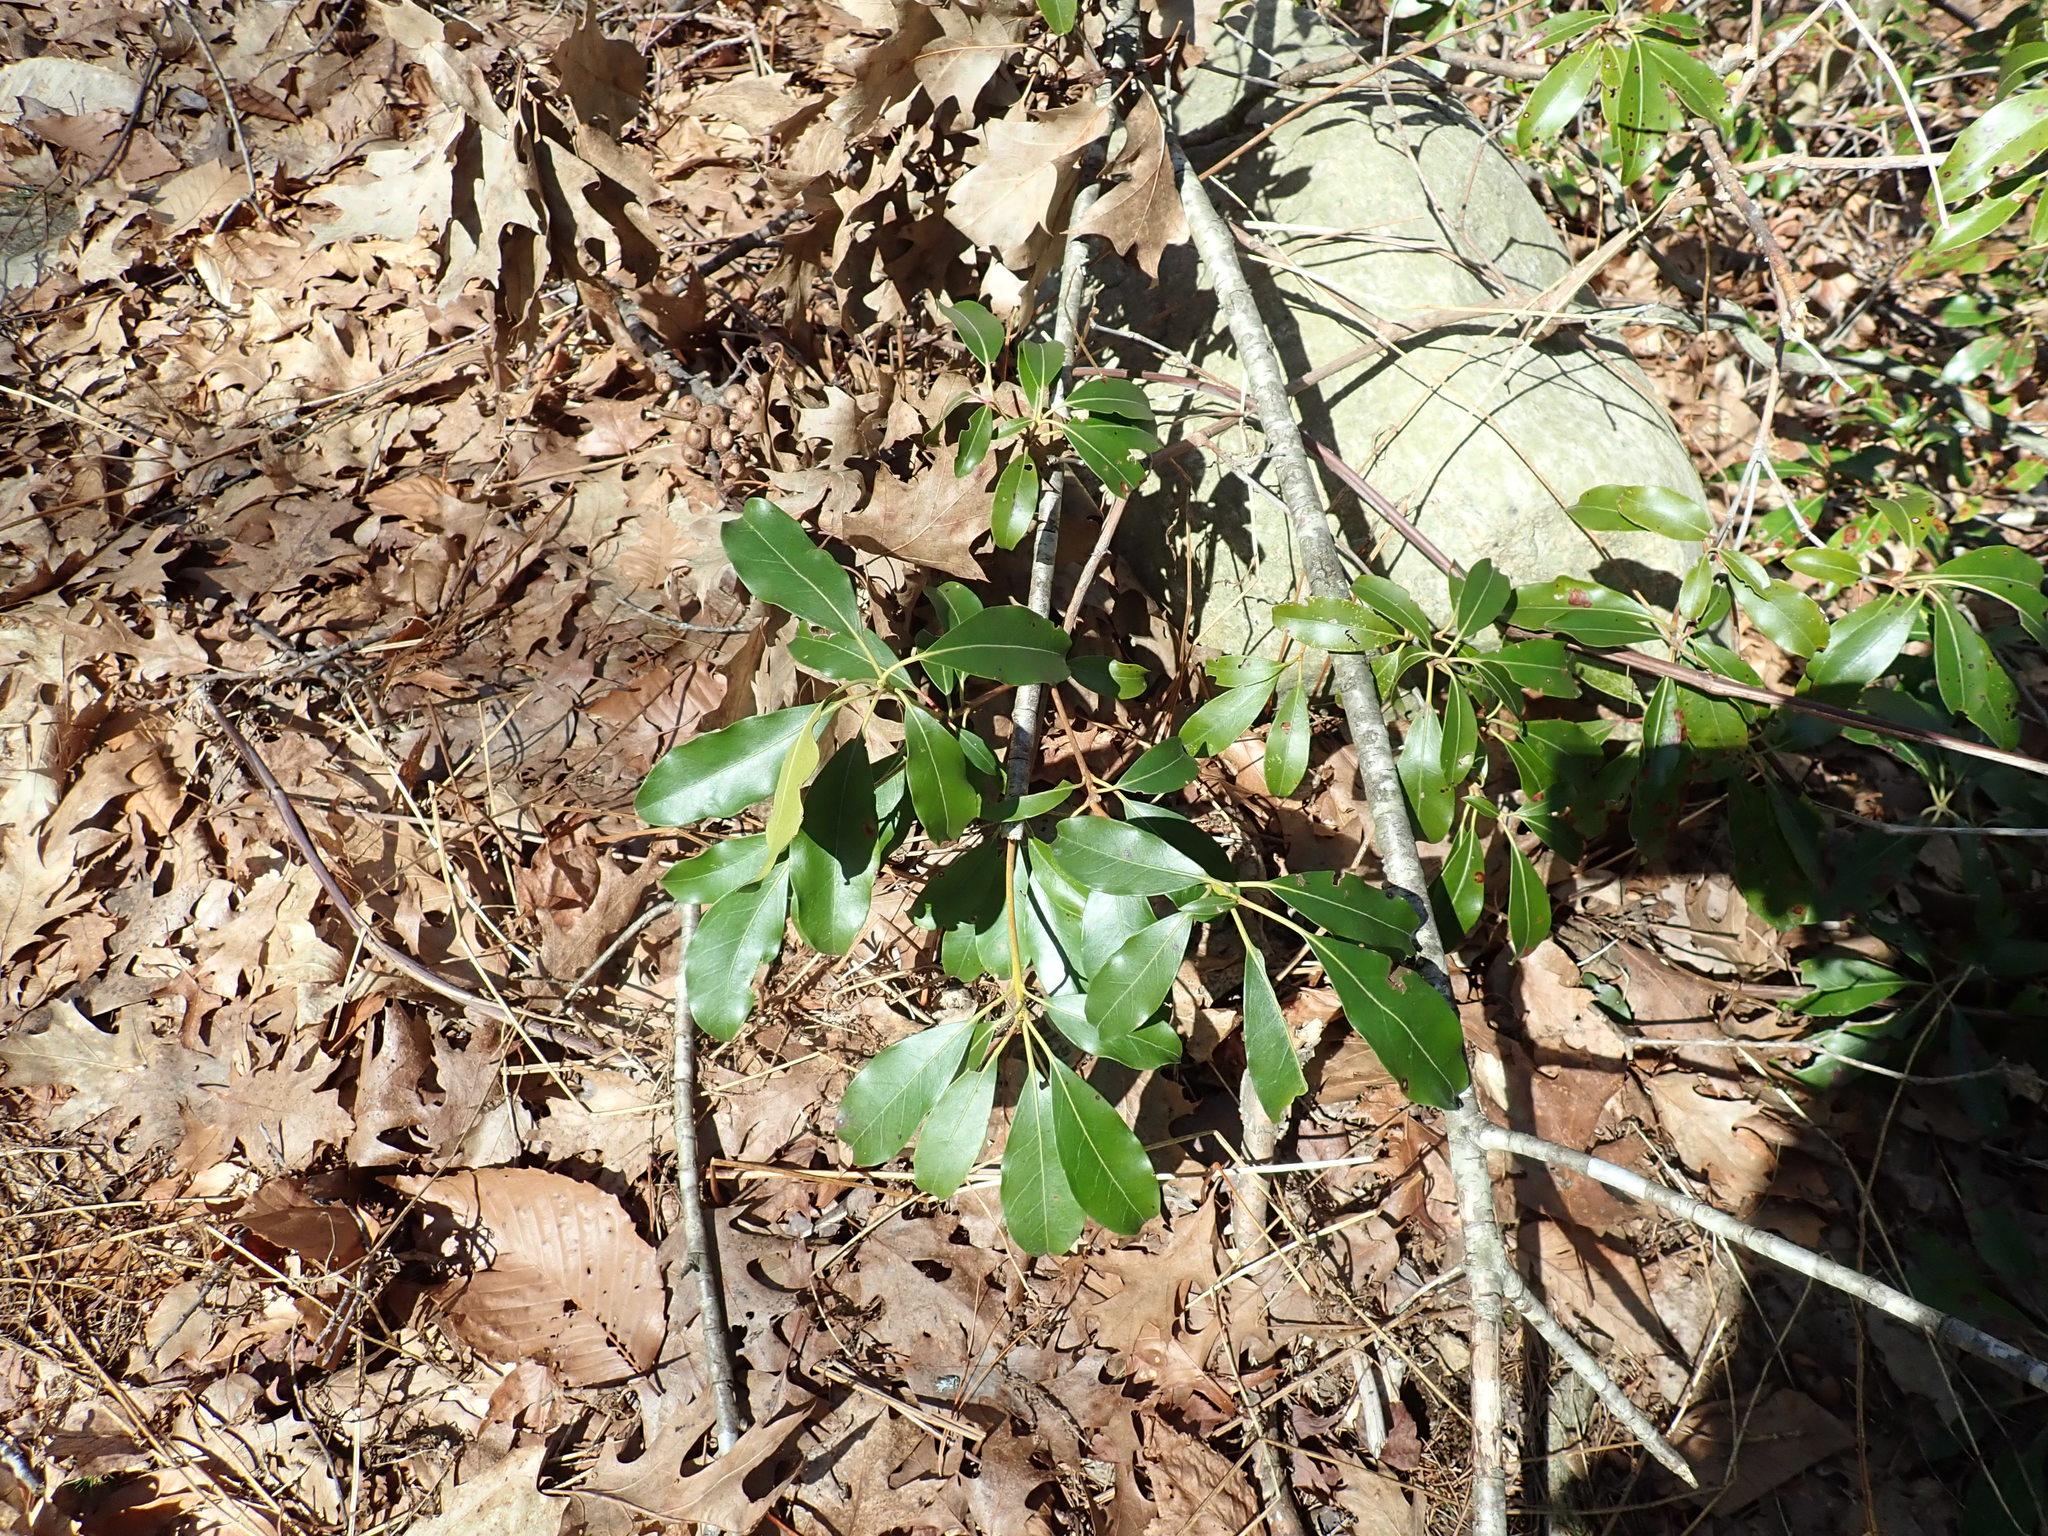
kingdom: Plantae
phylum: Tracheophyta
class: Magnoliopsida
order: Ericales
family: Ericaceae
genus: Kalmia
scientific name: Kalmia latifolia
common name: Mountain-laurel
